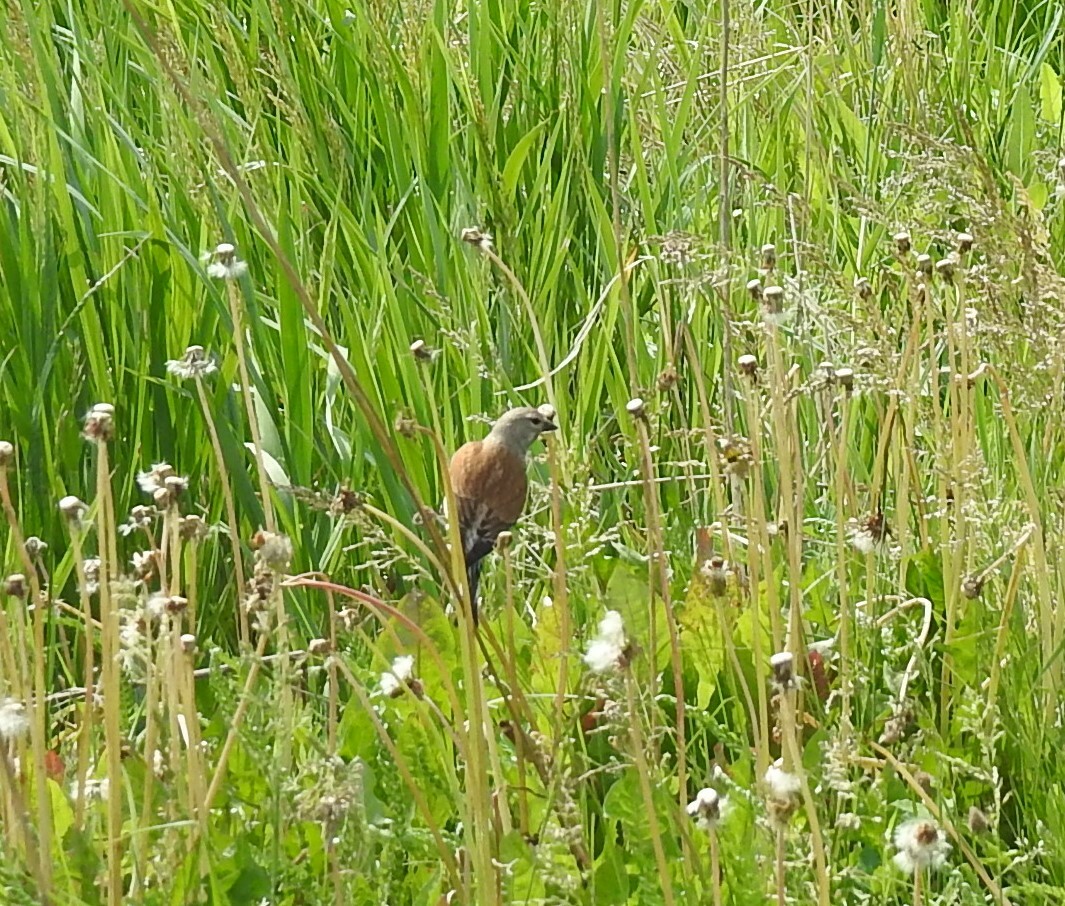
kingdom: Animalia
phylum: Chordata
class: Aves
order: Passeriformes
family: Fringillidae
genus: Linaria
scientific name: Linaria cannabina
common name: Common linnet
